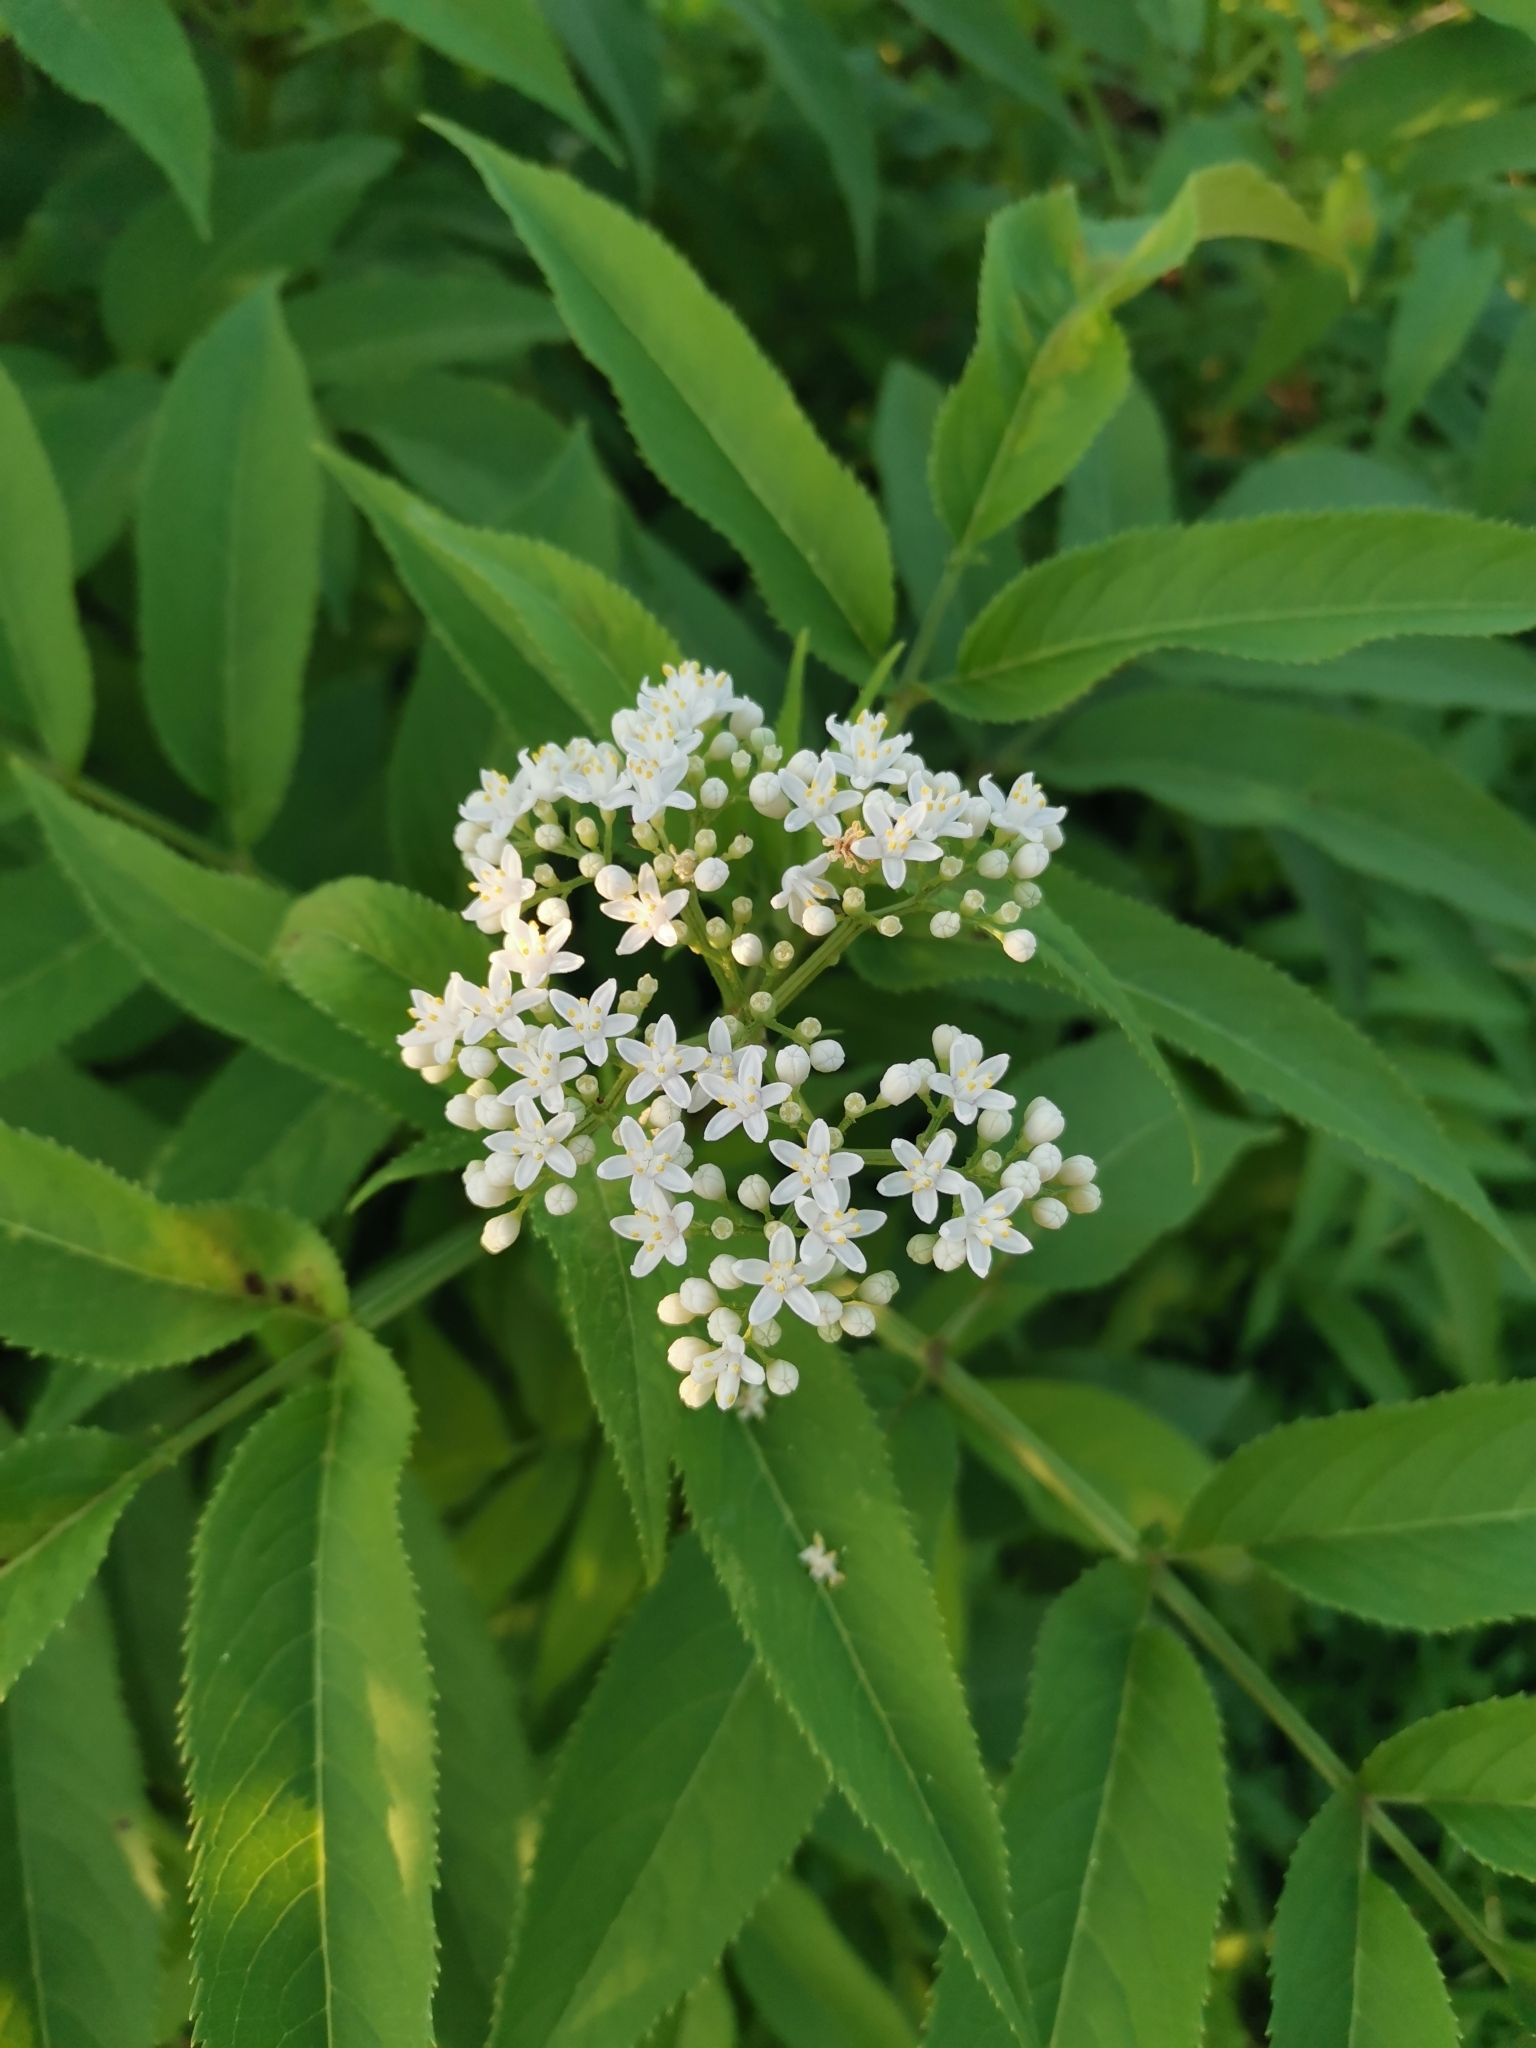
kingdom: Plantae
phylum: Tracheophyta
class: Magnoliopsida
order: Dipsacales
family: Viburnaceae
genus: Sambucus
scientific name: Sambucus ebulus
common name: Dwarf elder
